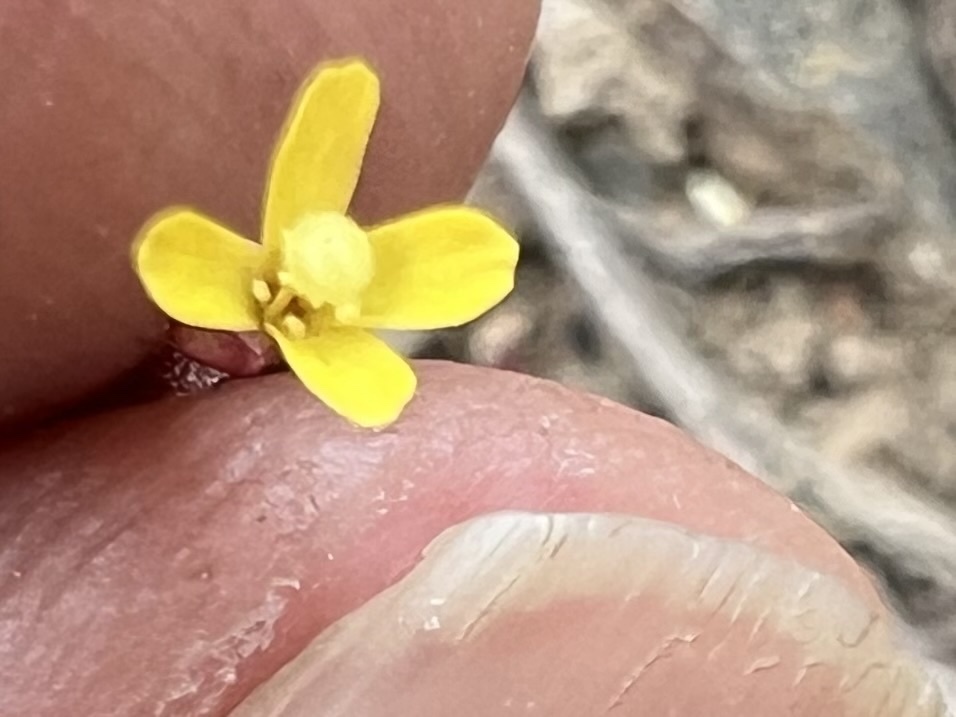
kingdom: Plantae
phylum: Tracheophyta
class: Magnoliopsida
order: Myrtales
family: Onagraceae
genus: Camissonia
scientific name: Camissonia parvula
